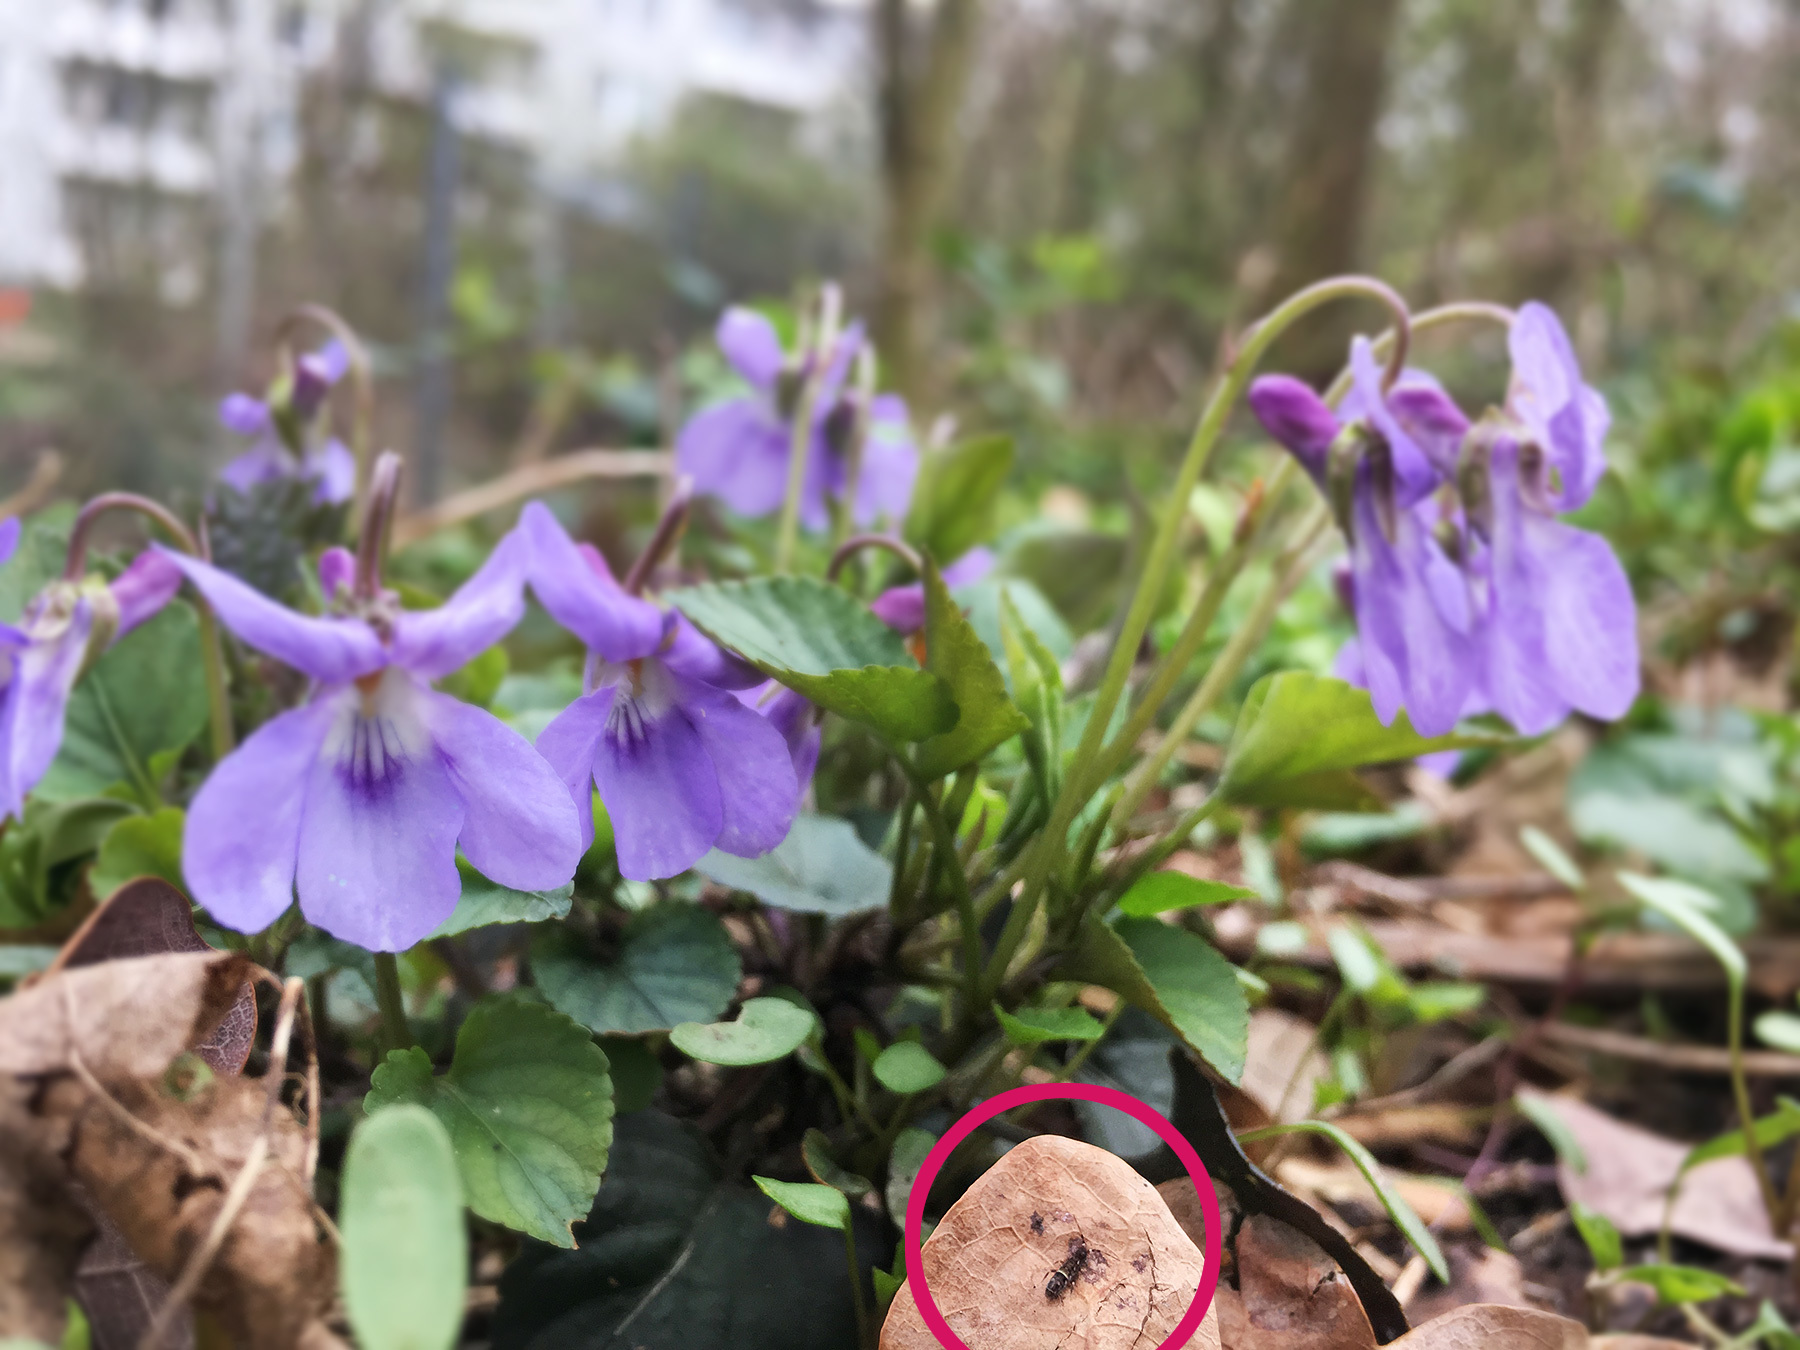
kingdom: Animalia
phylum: Arthropoda
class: Collembola
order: Entomobryomorpha
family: Orchesellidae
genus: Orchesella
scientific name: Orchesella cincta
